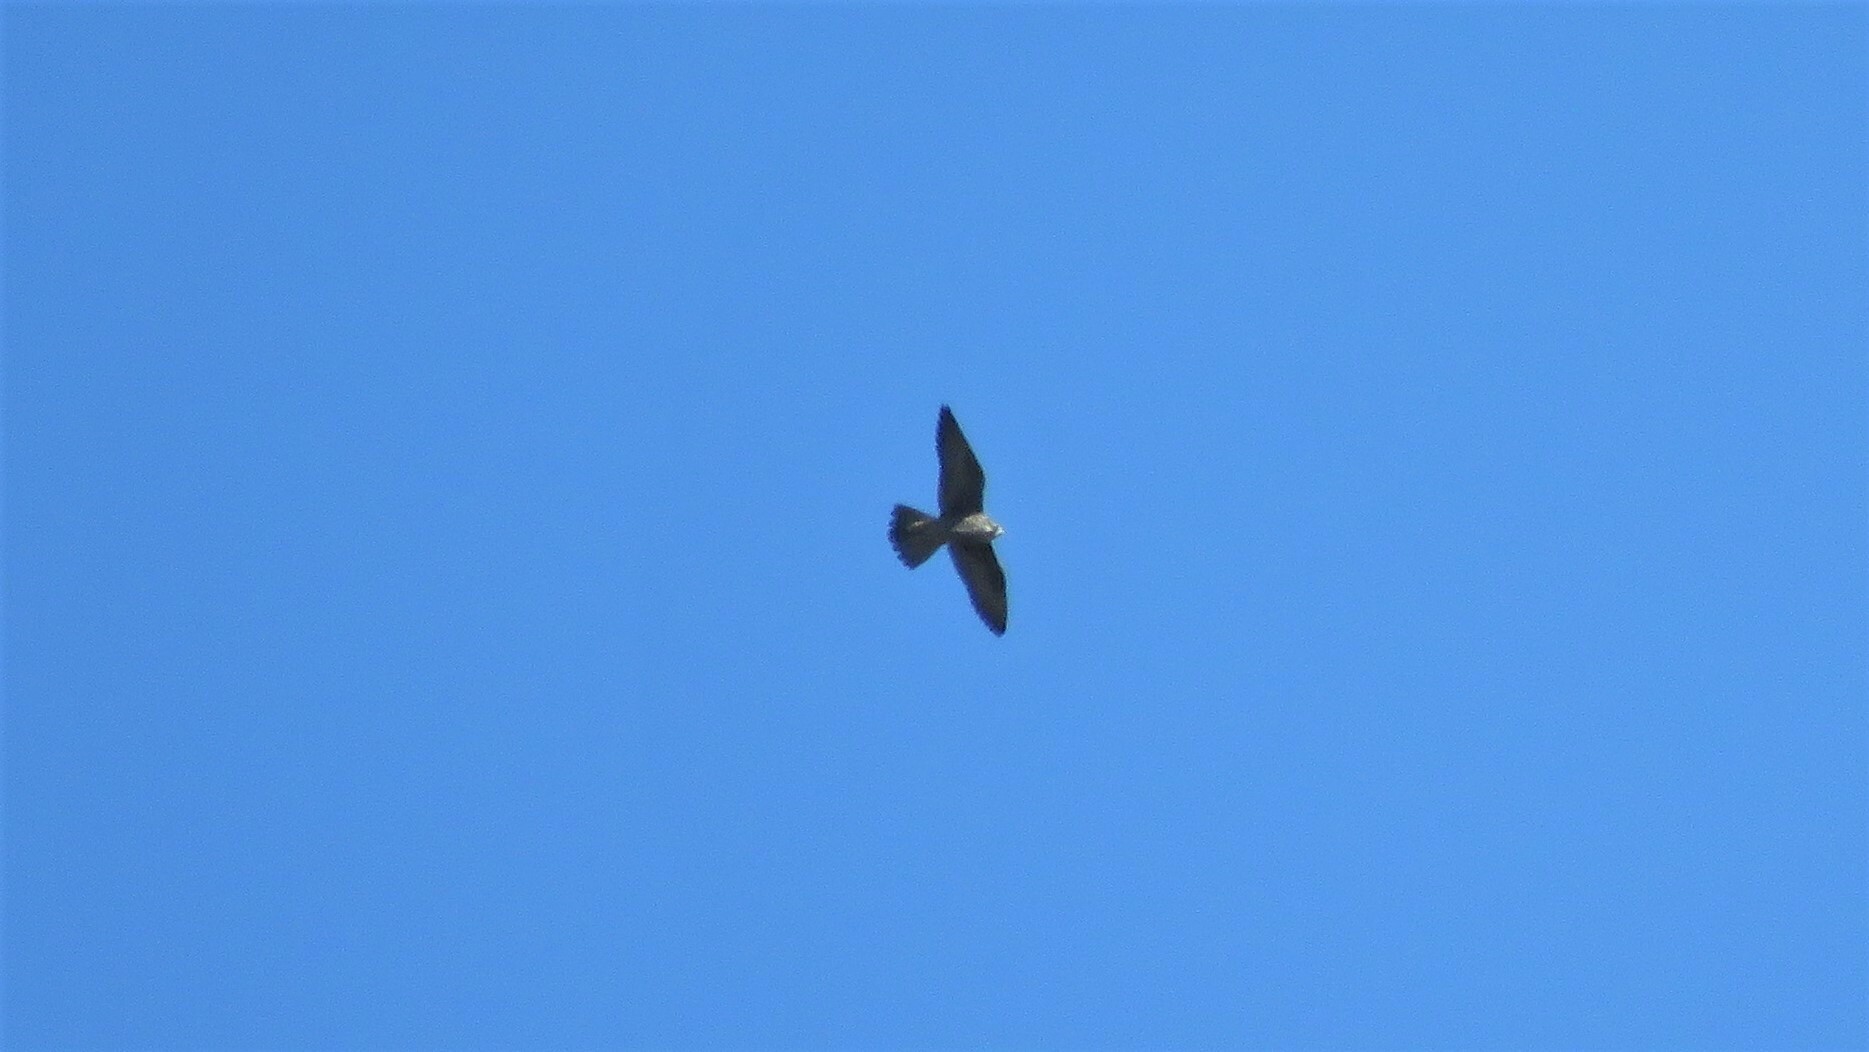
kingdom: Animalia
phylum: Chordata
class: Aves
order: Falconiformes
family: Falconidae
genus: Falco
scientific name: Falco peregrinus
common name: Peregrine falcon
